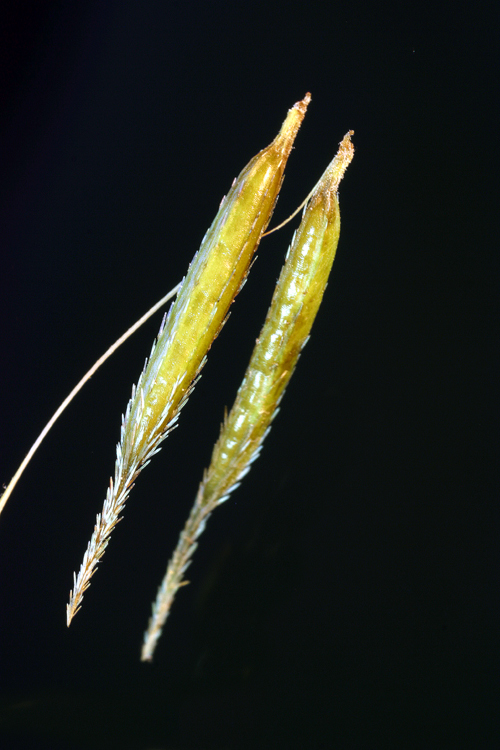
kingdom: Plantae
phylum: Tracheophyta
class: Magnoliopsida
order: Apiales
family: Apiaceae
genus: Osmorhiza
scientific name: Osmorhiza berteroi
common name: Mountain sweet cicely
